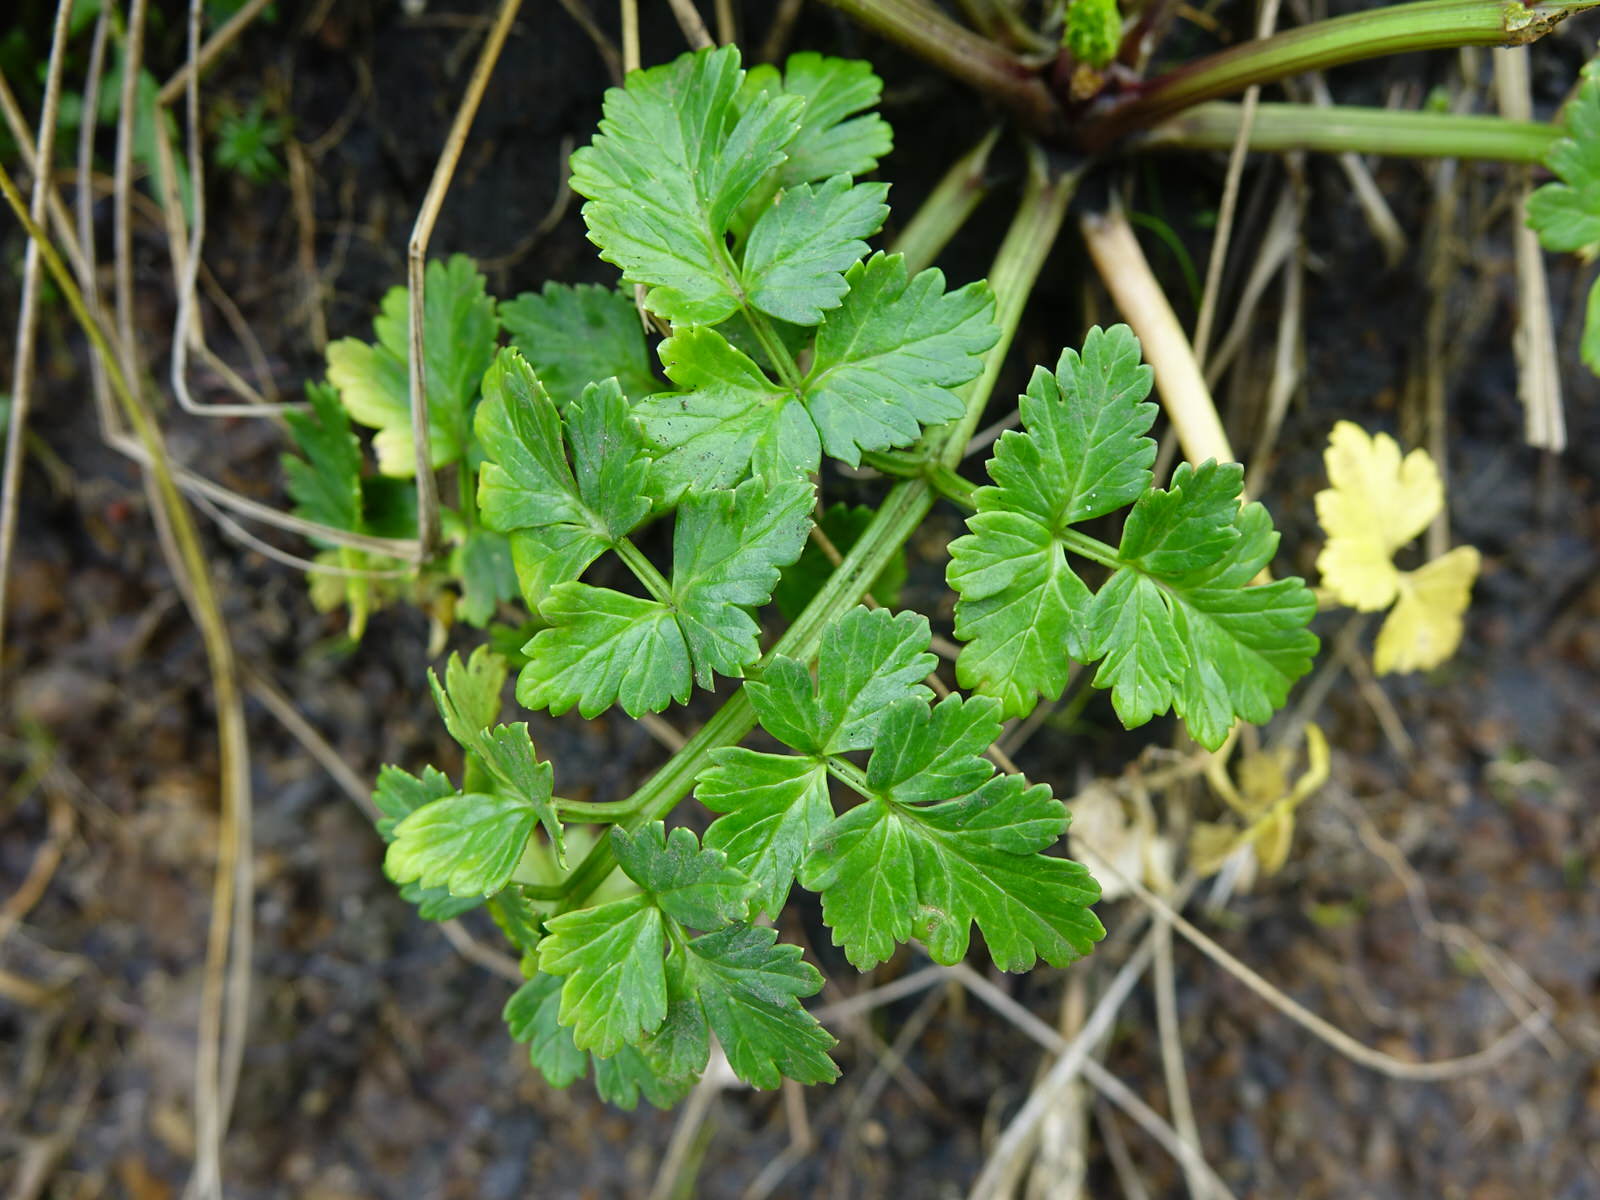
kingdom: Plantae
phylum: Tracheophyta
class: Magnoliopsida
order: Apiales
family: Apiaceae
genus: Apium
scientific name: Apium prostratum
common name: Prostrate marshwort
